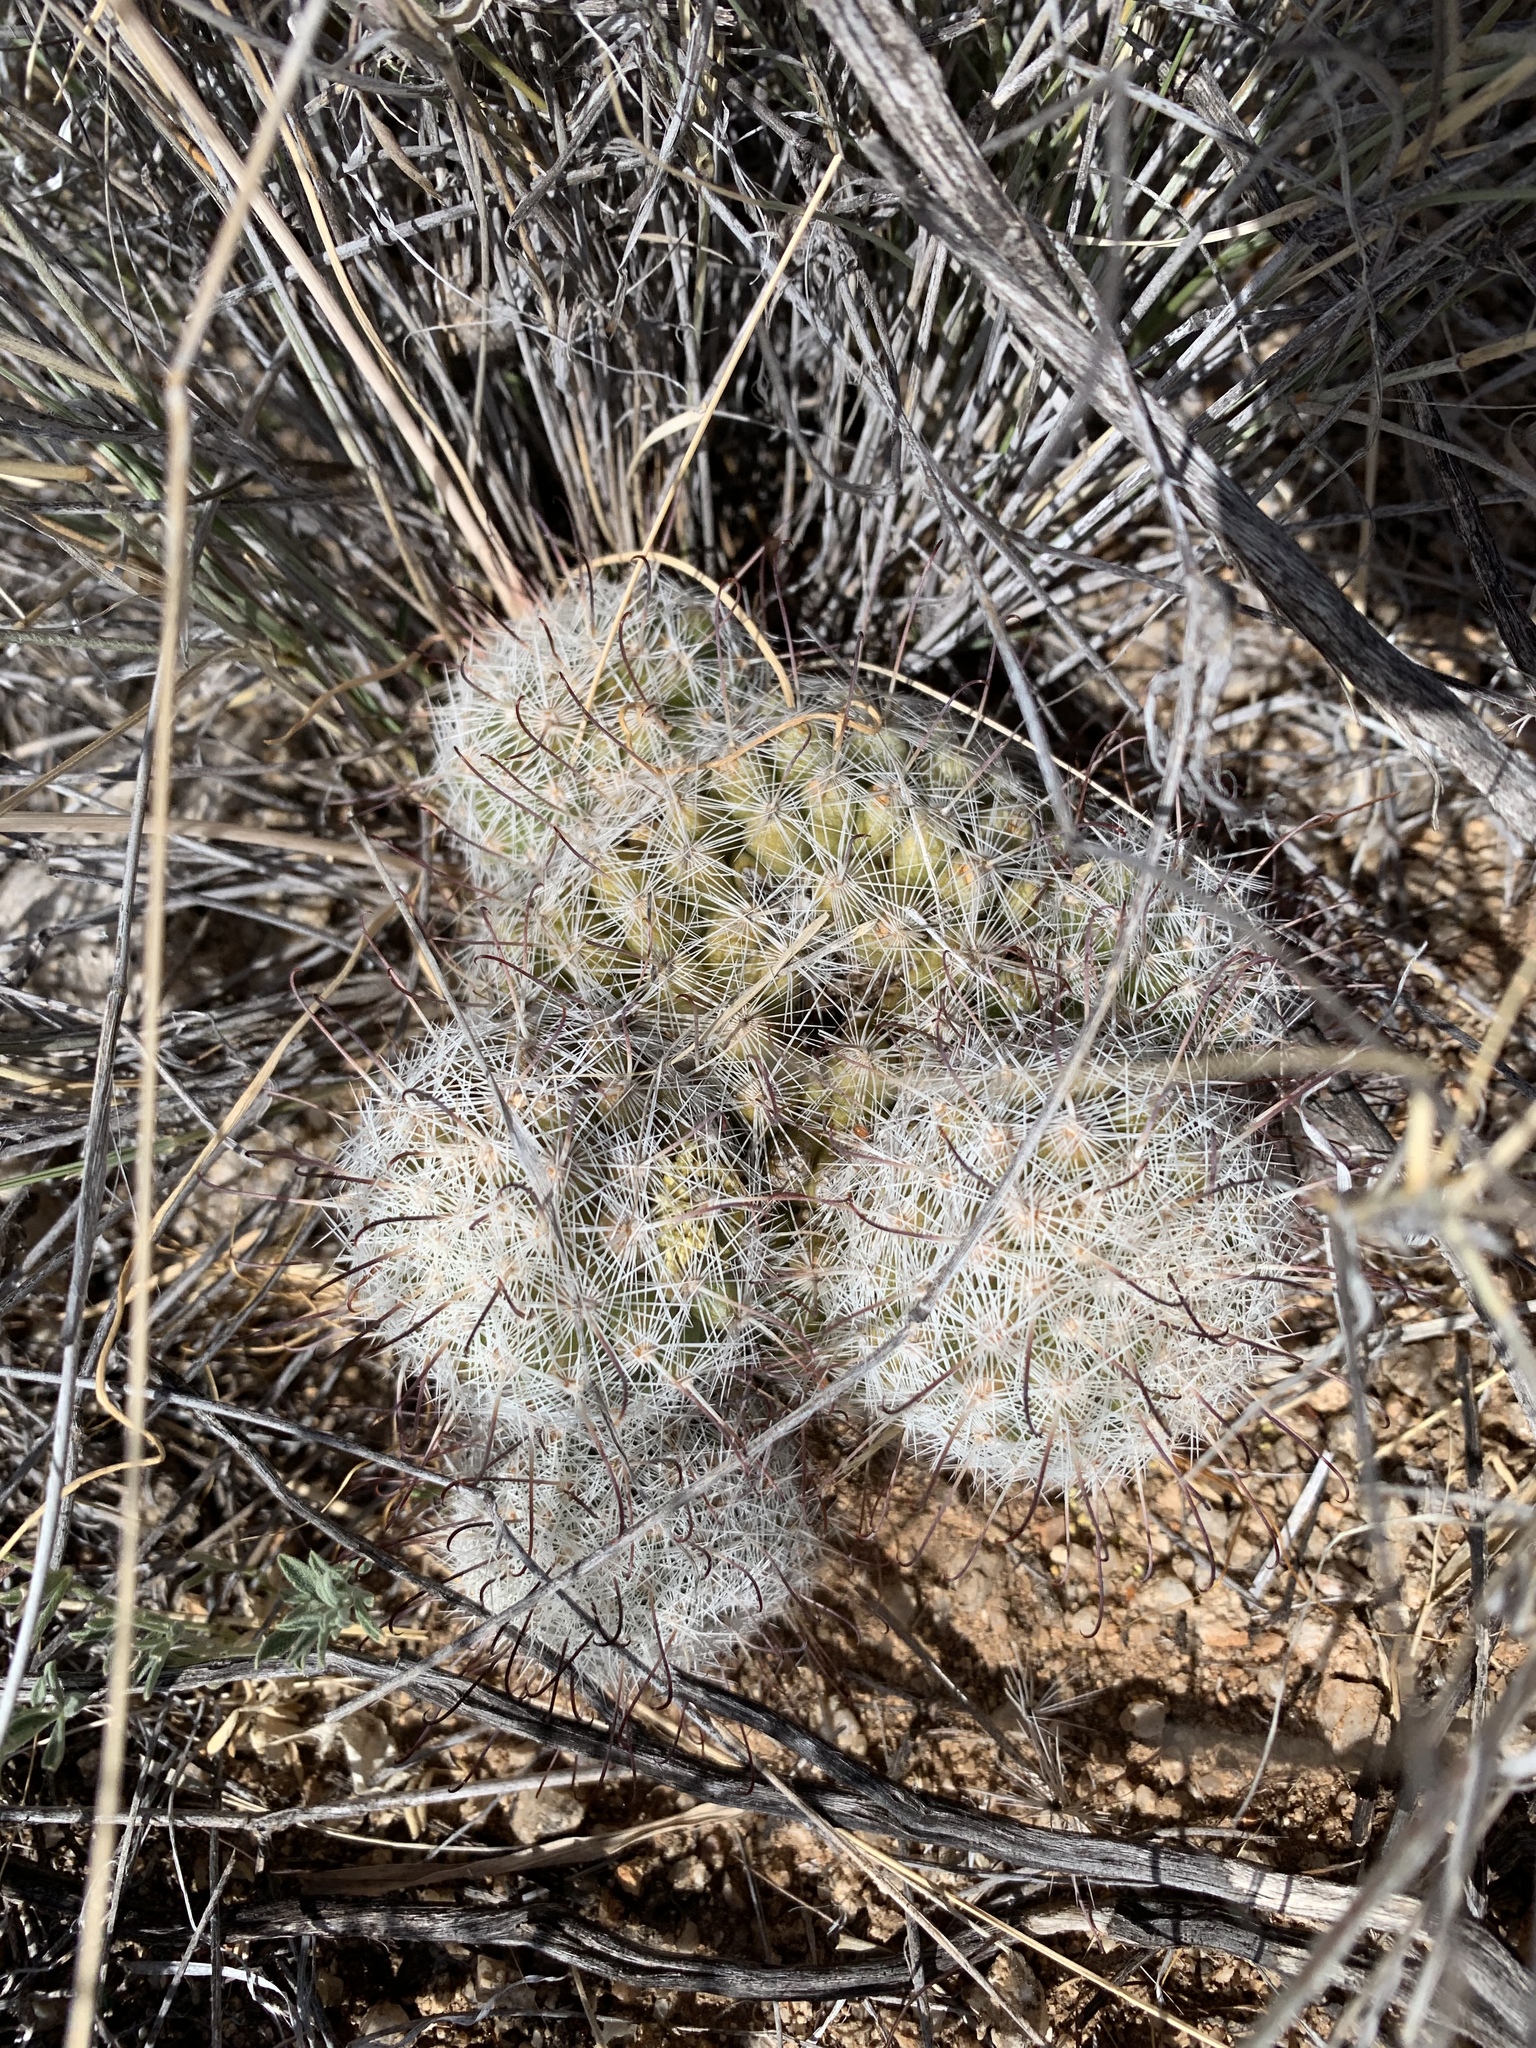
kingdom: Plantae
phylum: Tracheophyta
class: Magnoliopsida
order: Caryophyllales
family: Cactaceae
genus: Cochemiea
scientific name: Cochemiea grahamii
